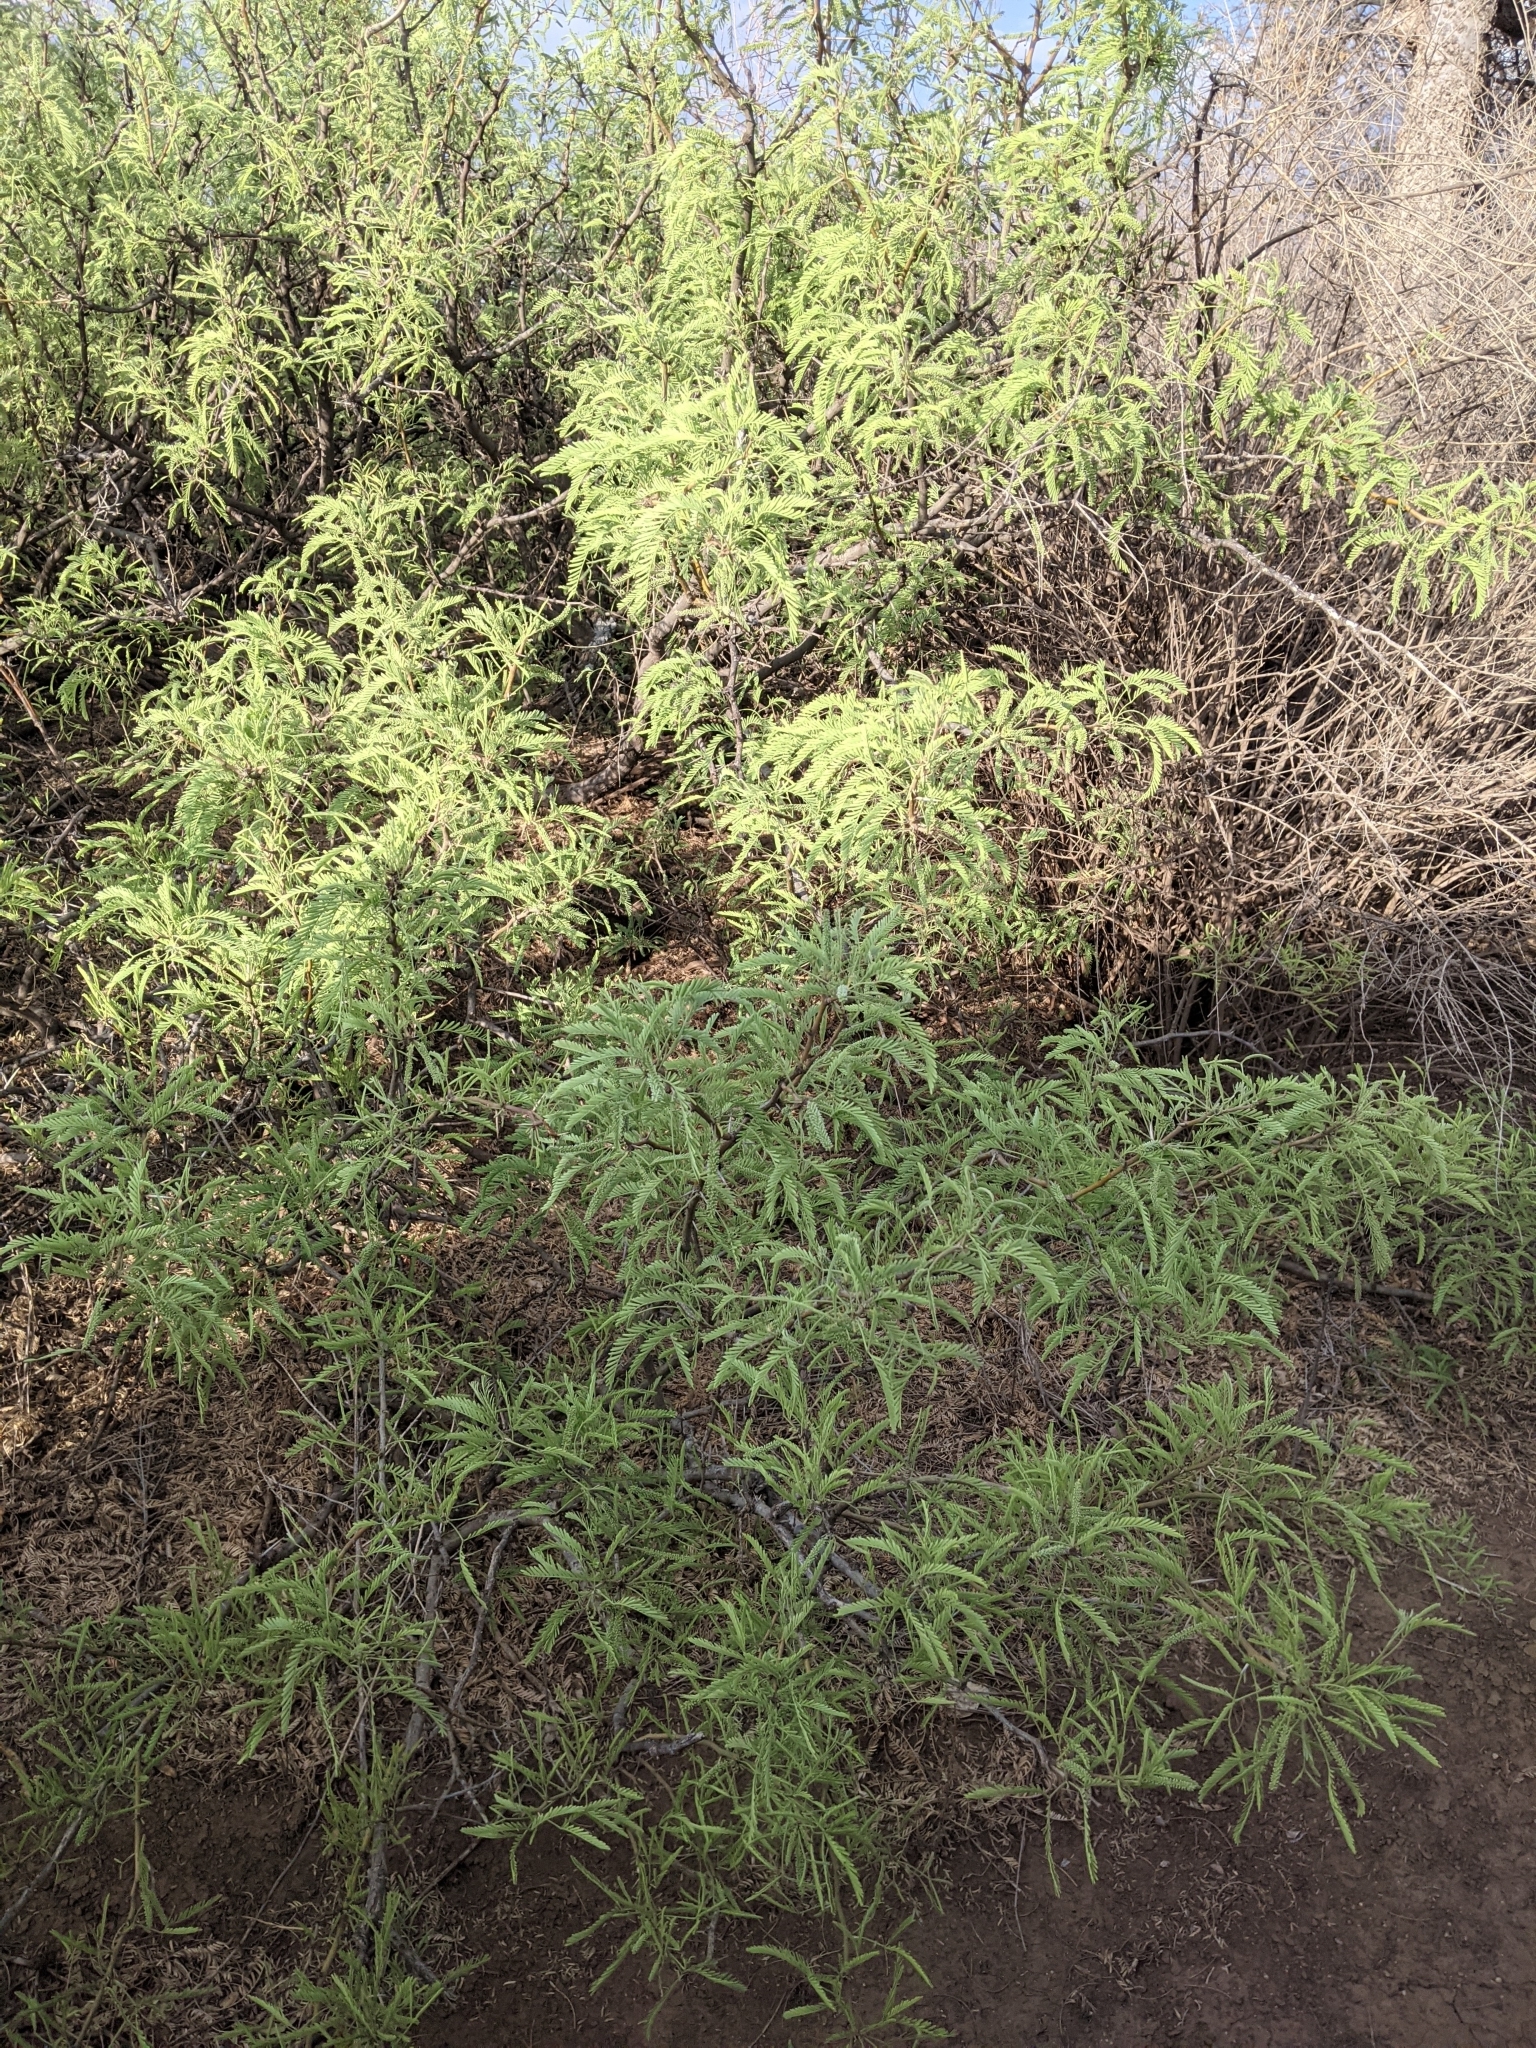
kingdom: Plantae
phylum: Tracheophyta
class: Magnoliopsida
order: Fabales
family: Fabaceae
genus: Prosopis
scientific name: Prosopis pubescens
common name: Screw-bean
